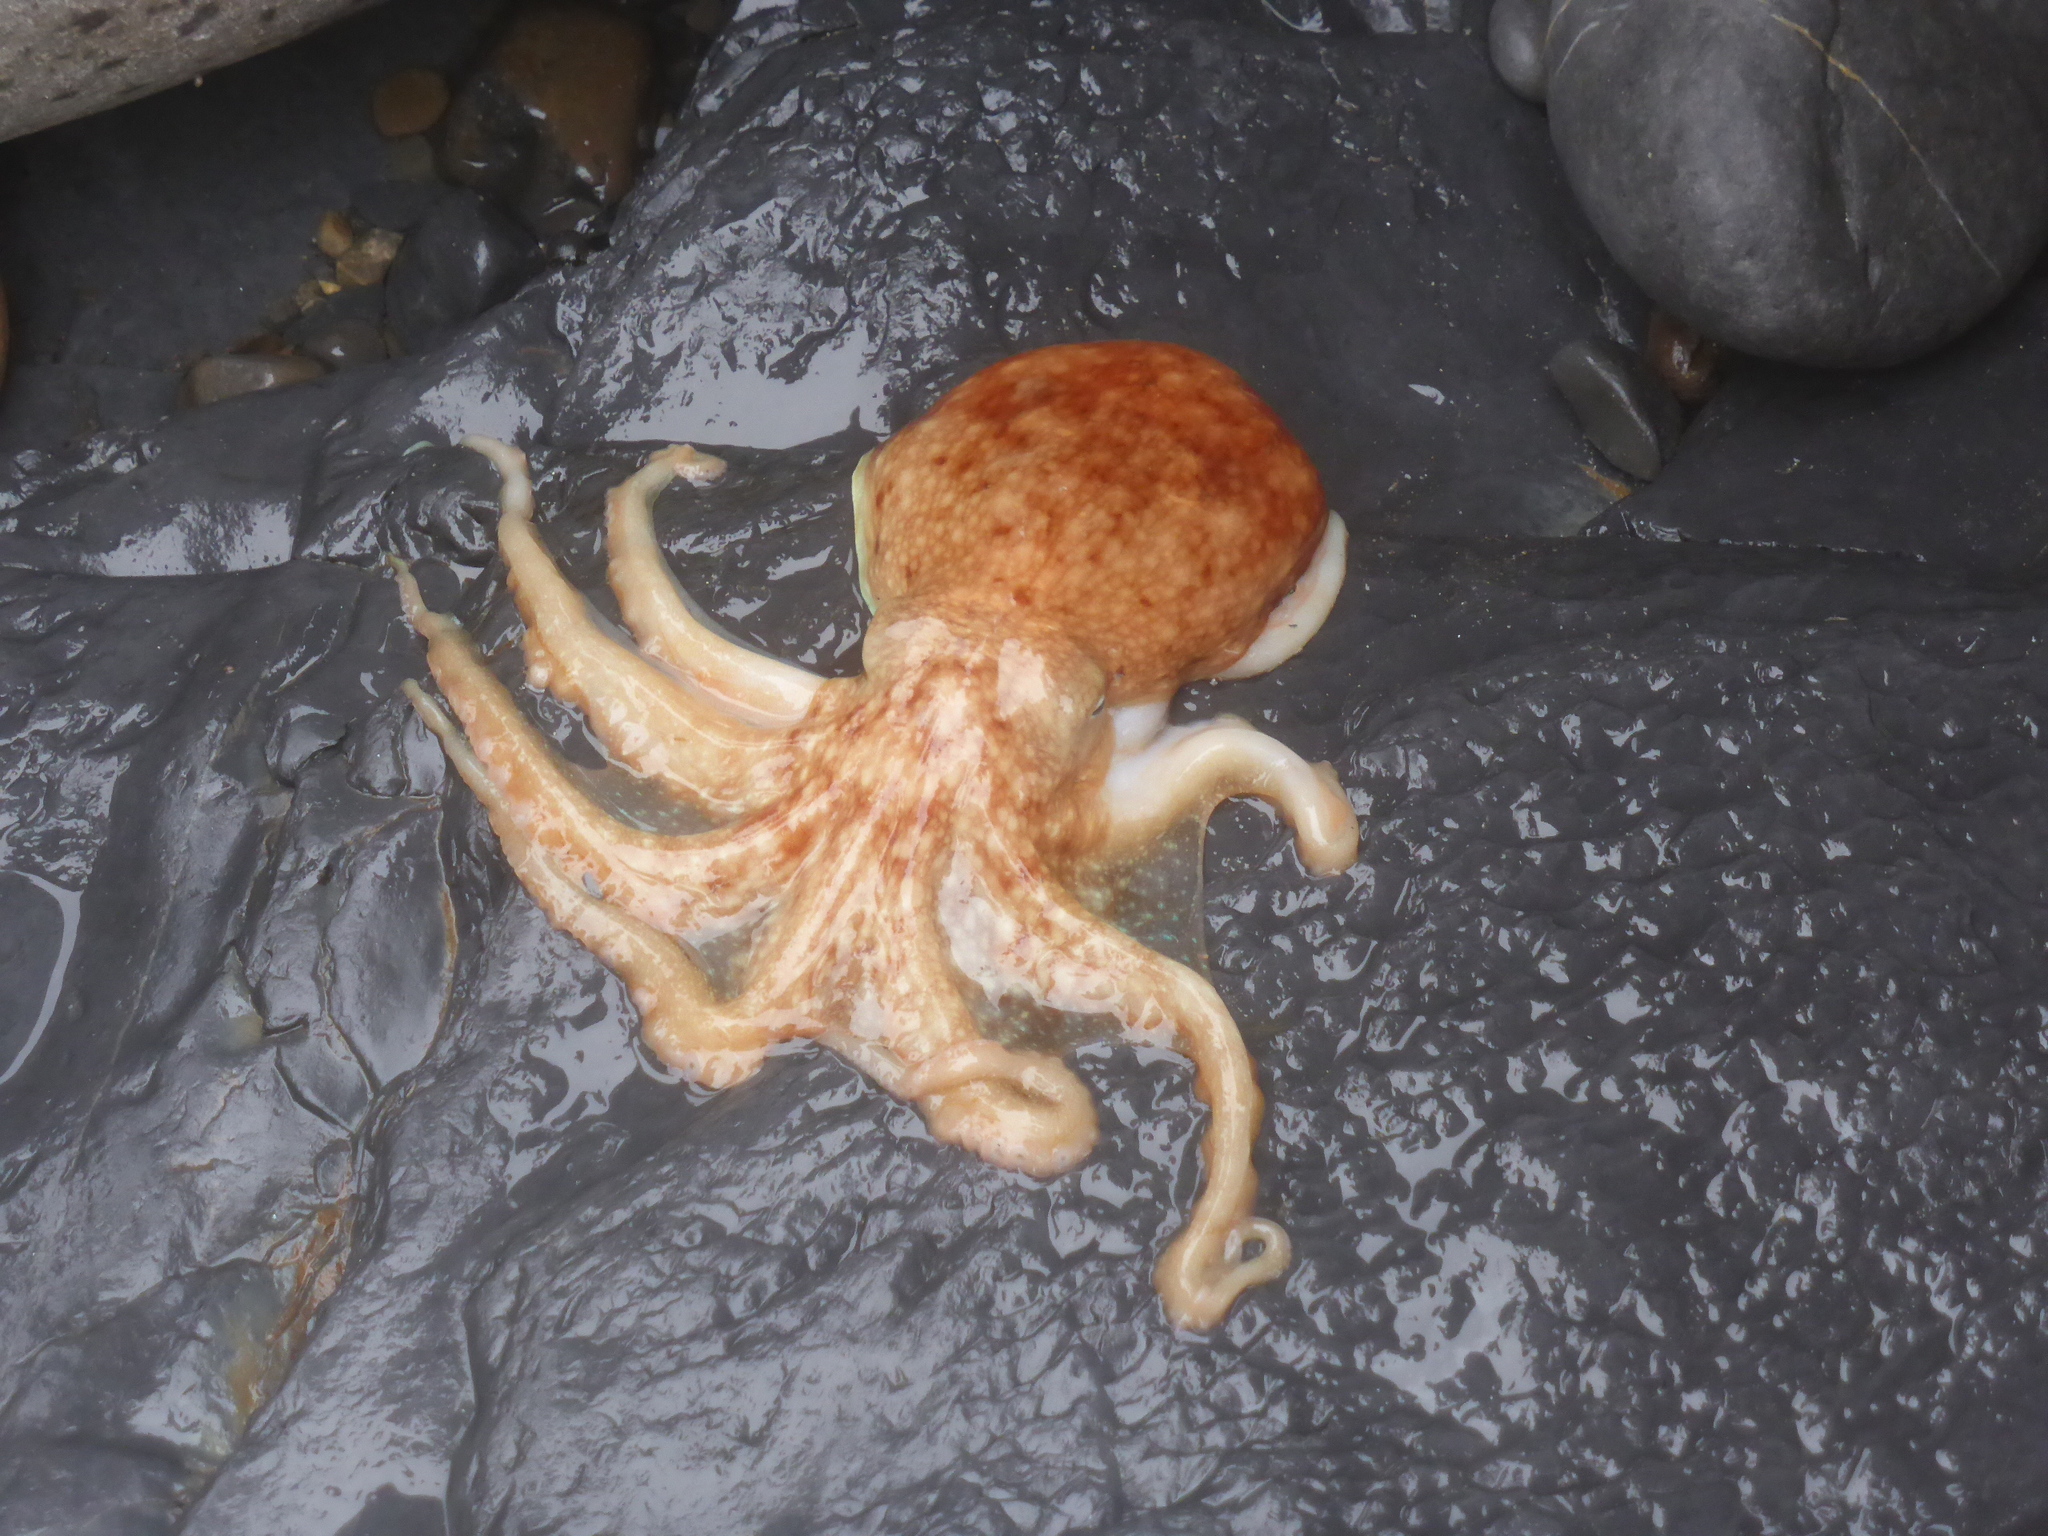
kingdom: Animalia
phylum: Mollusca
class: Cephalopoda
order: Octopoda
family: Eledonidae
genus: Eledone
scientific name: Eledone cirrhosa
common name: Curled octopus
